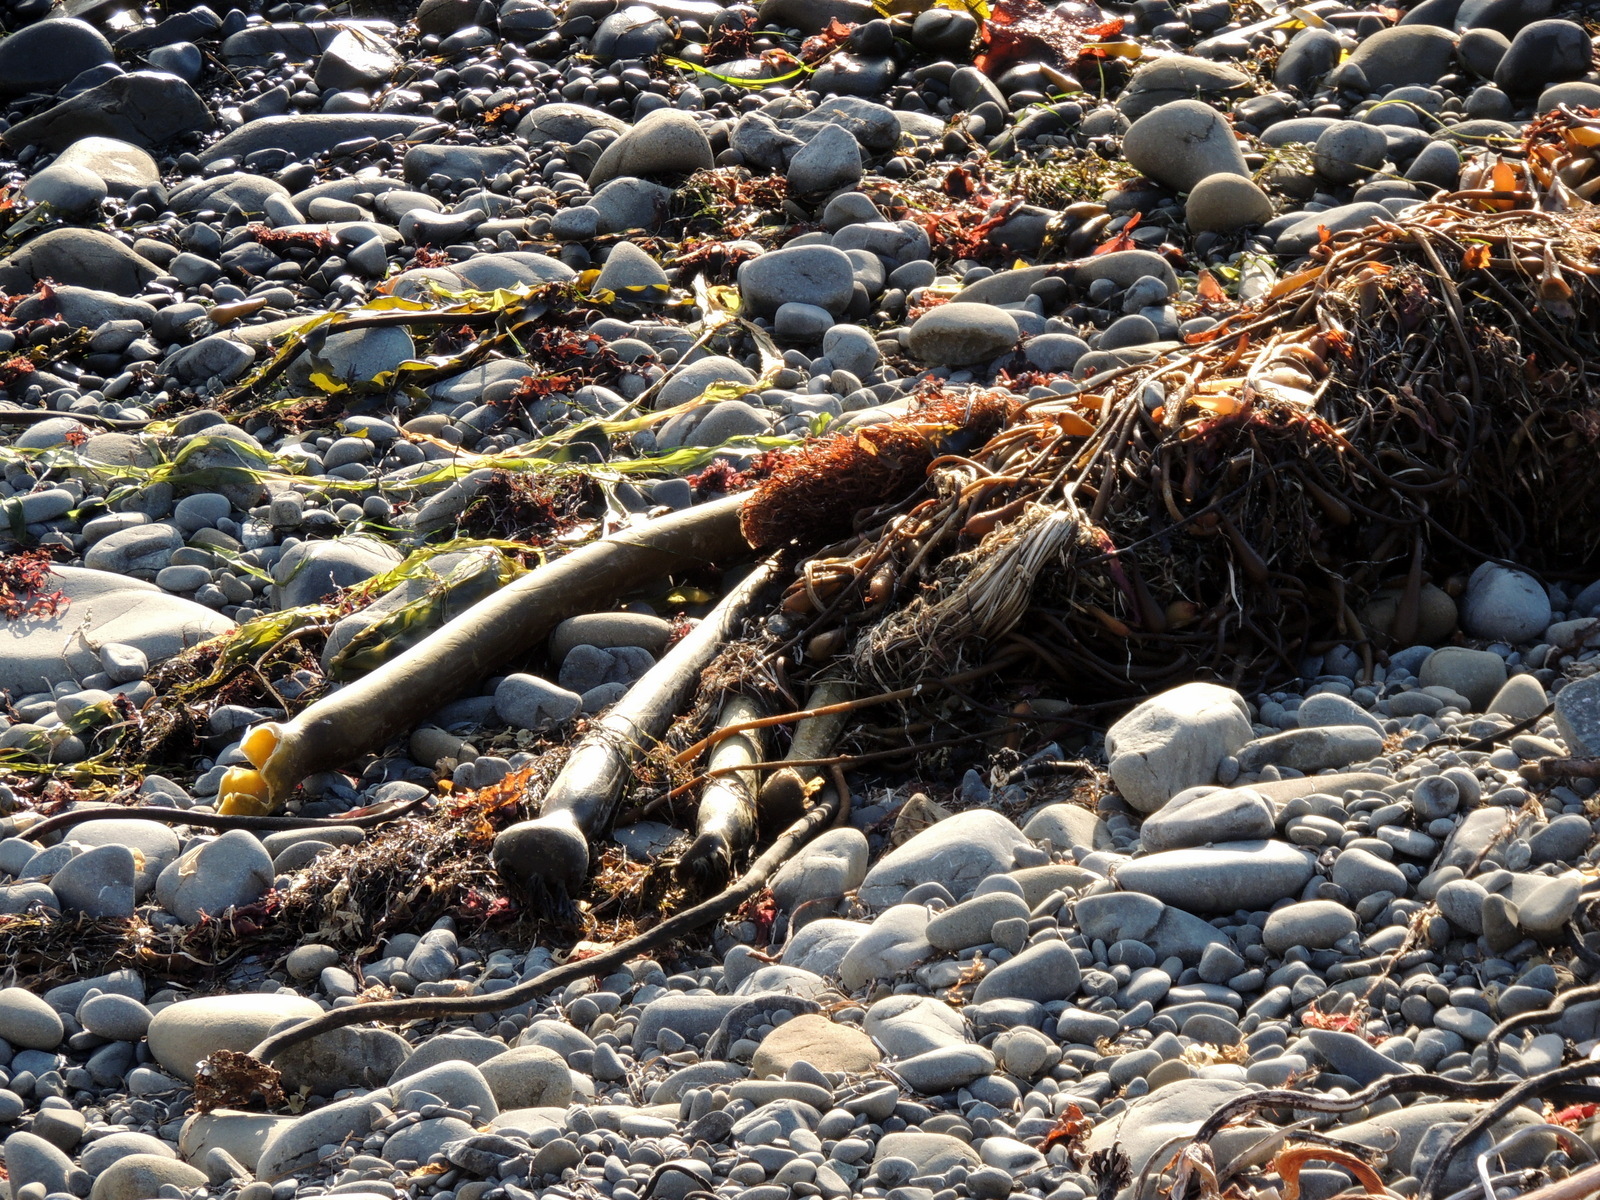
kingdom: Chromista
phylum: Ochrophyta
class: Phaeophyceae
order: Laminariales
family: Laminariaceae
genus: Nereocystis
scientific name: Nereocystis luetkeana
